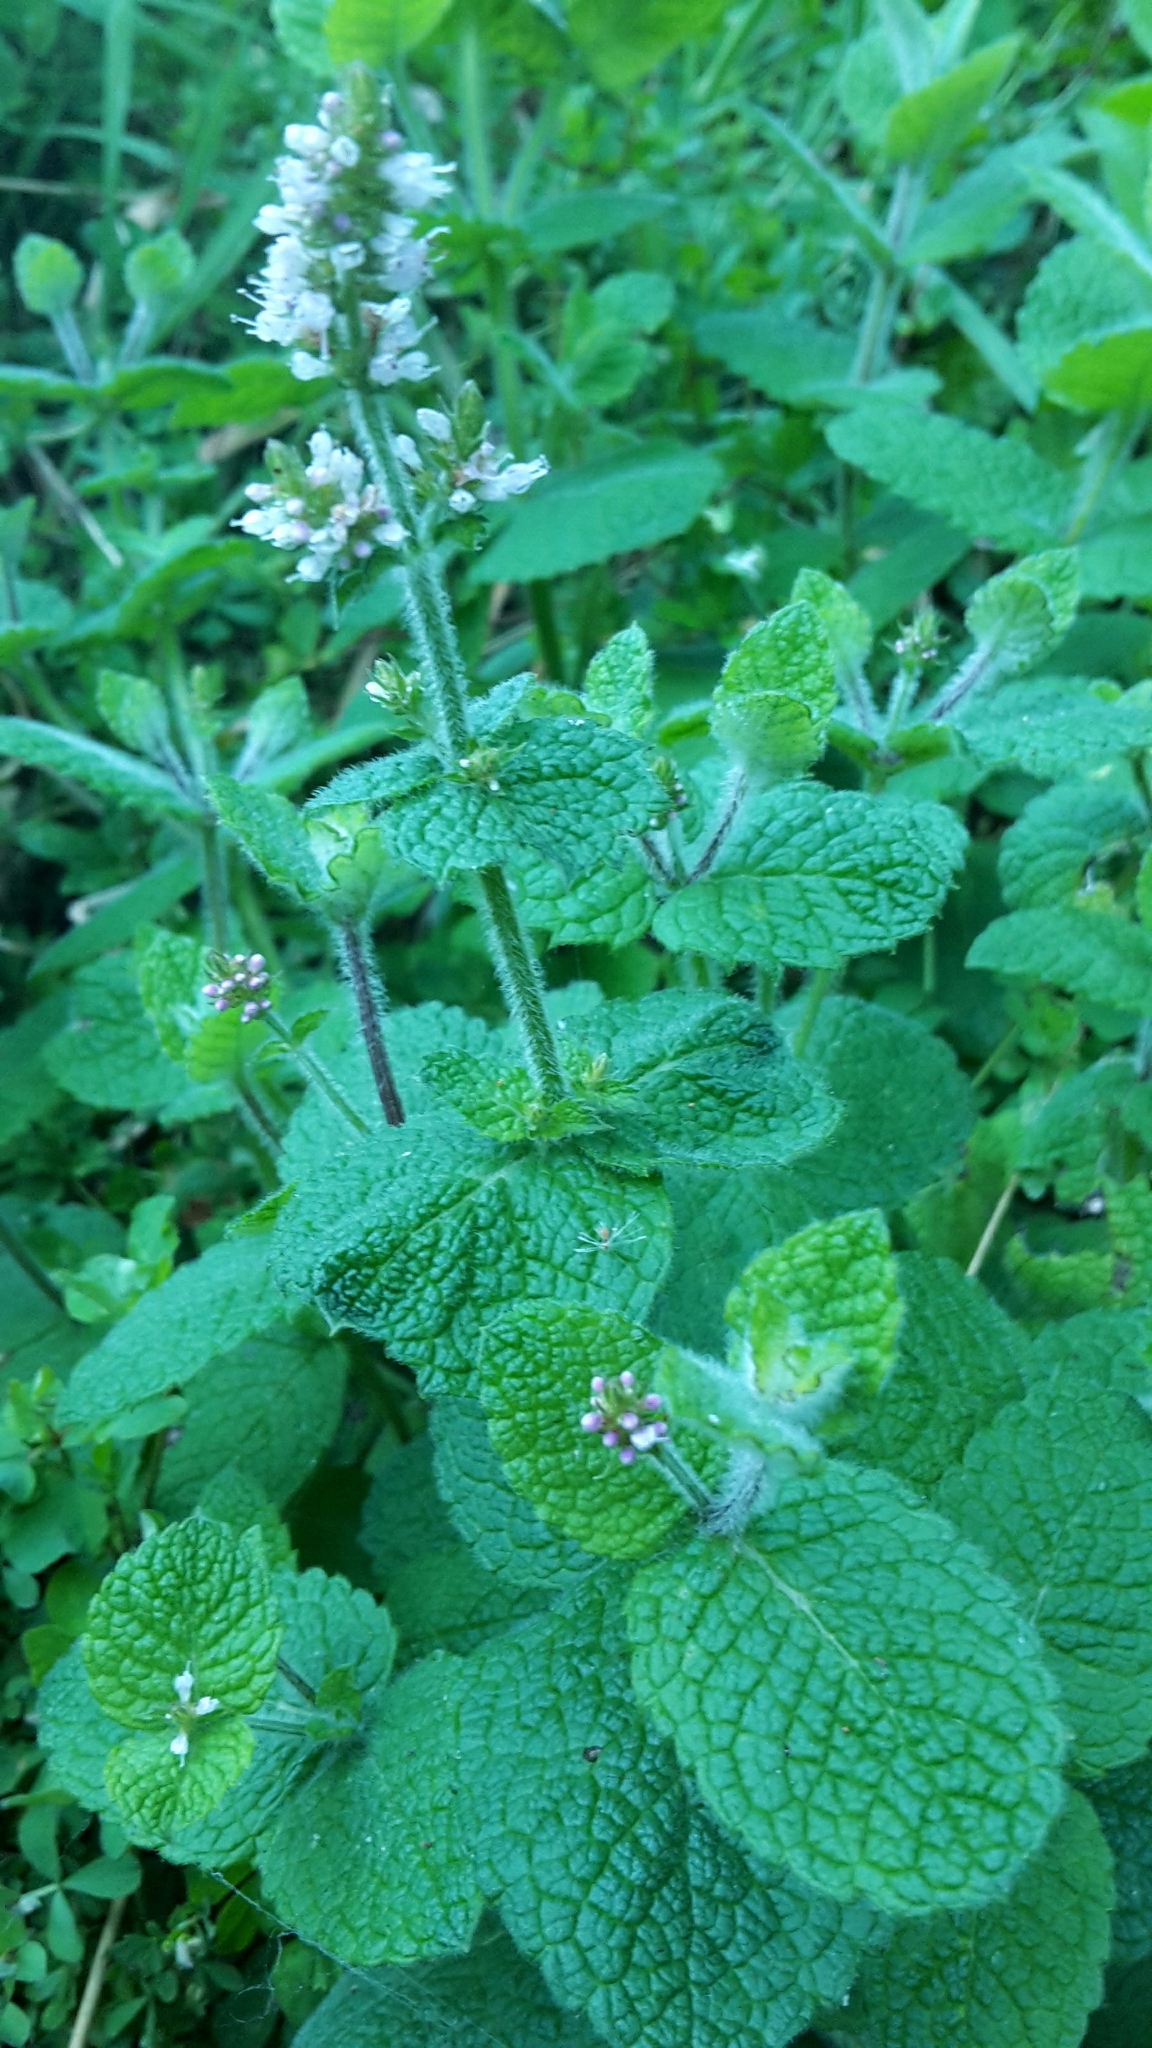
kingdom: Plantae
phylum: Tracheophyta
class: Magnoliopsida
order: Lamiales
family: Lamiaceae
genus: Mentha
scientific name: Mentha suaveolens
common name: Apple mint
